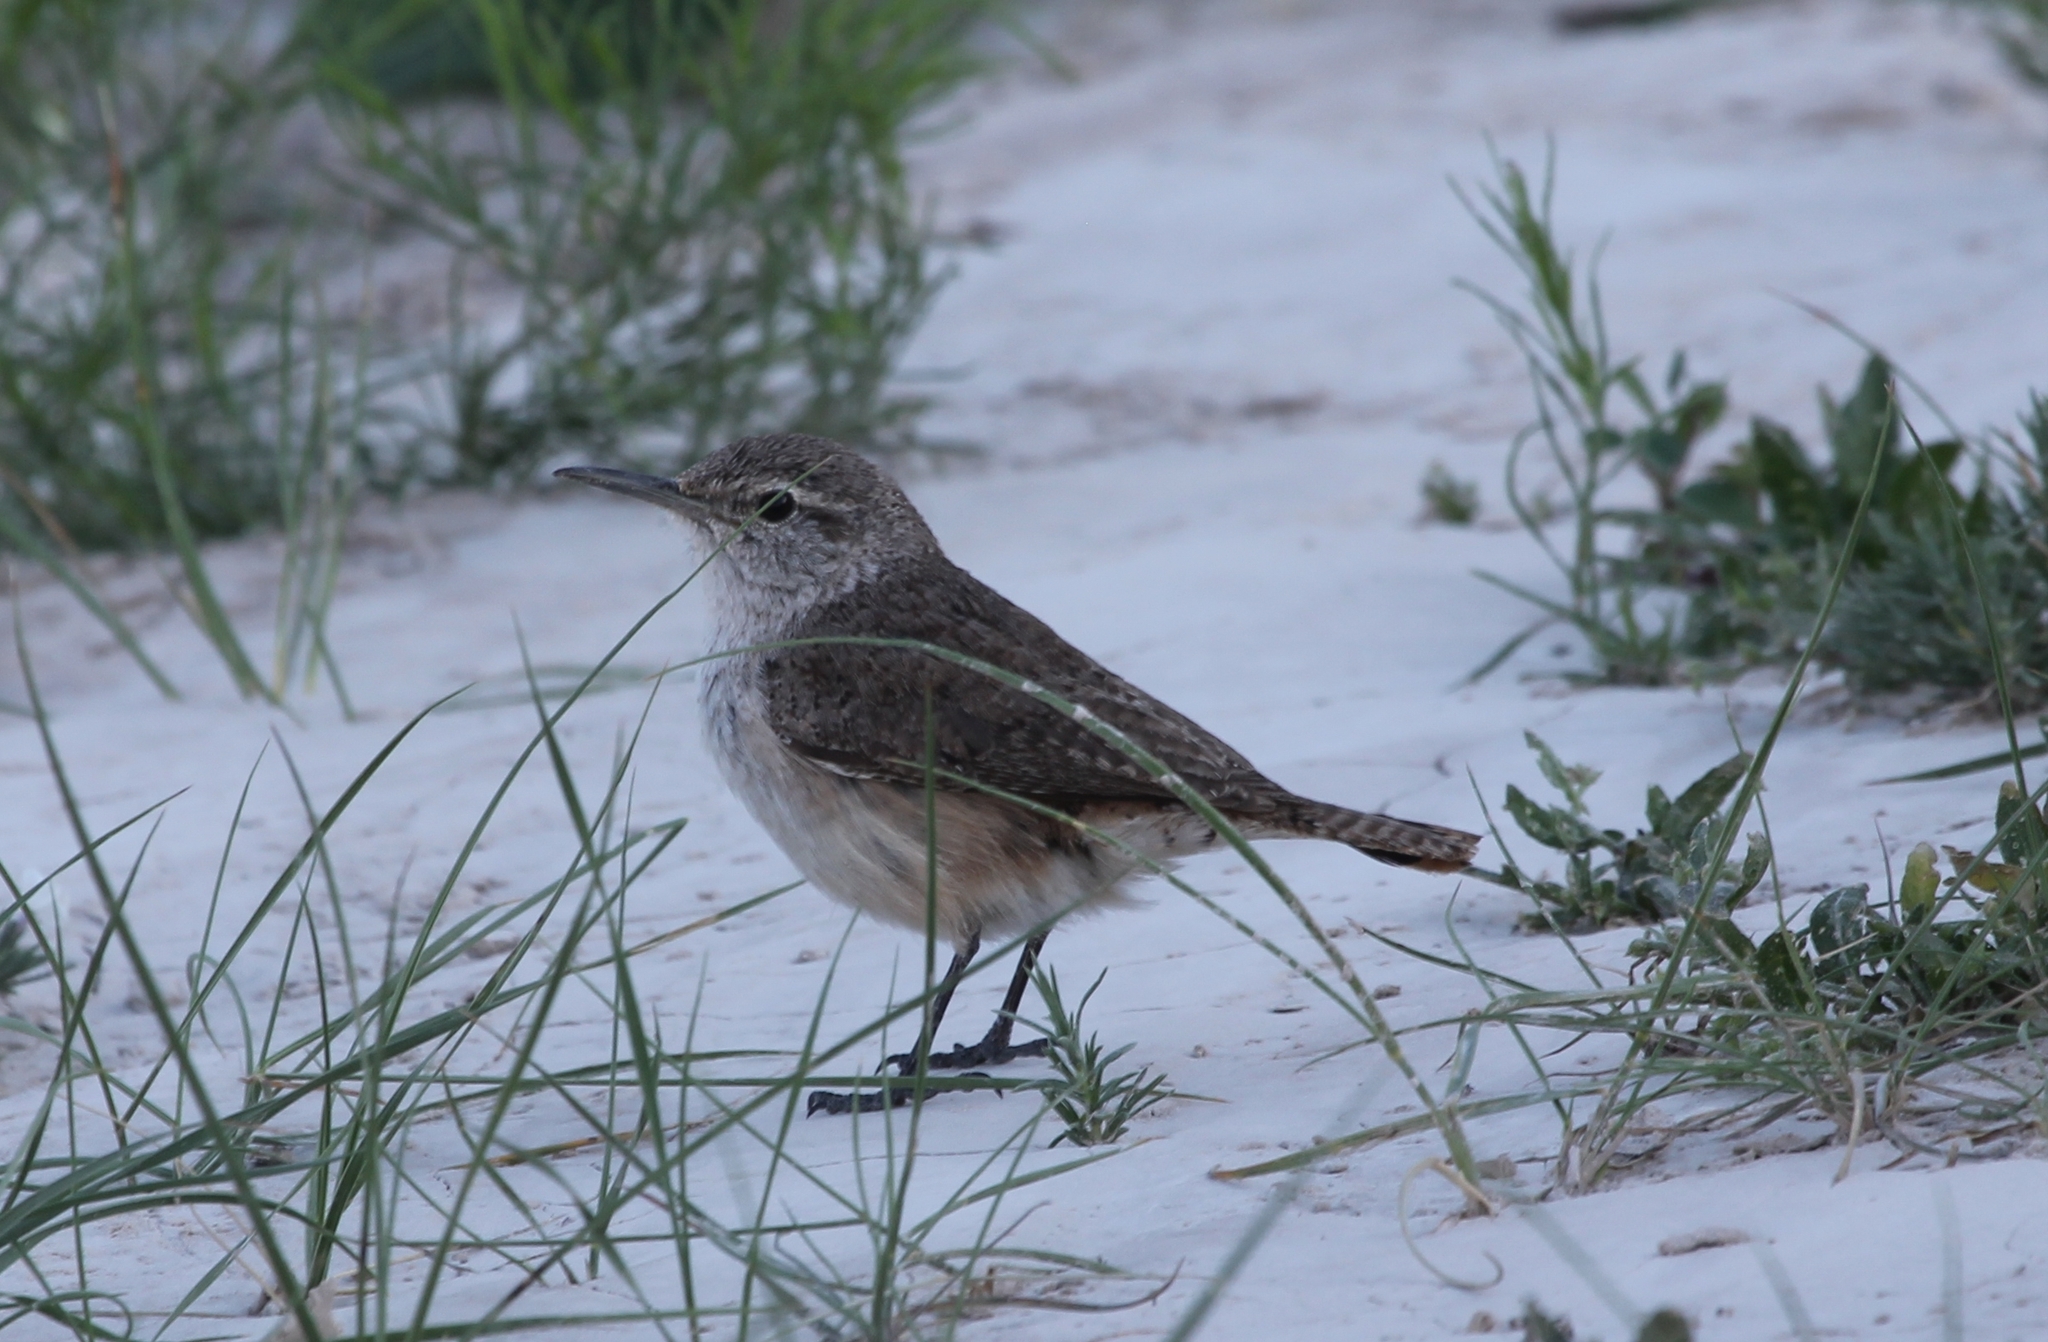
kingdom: Animalia
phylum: Chordata
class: Aves
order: Passeriformes
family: Troglodytidae
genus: Salpinctes
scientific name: Salpinctes obsoletus
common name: Rock wren
